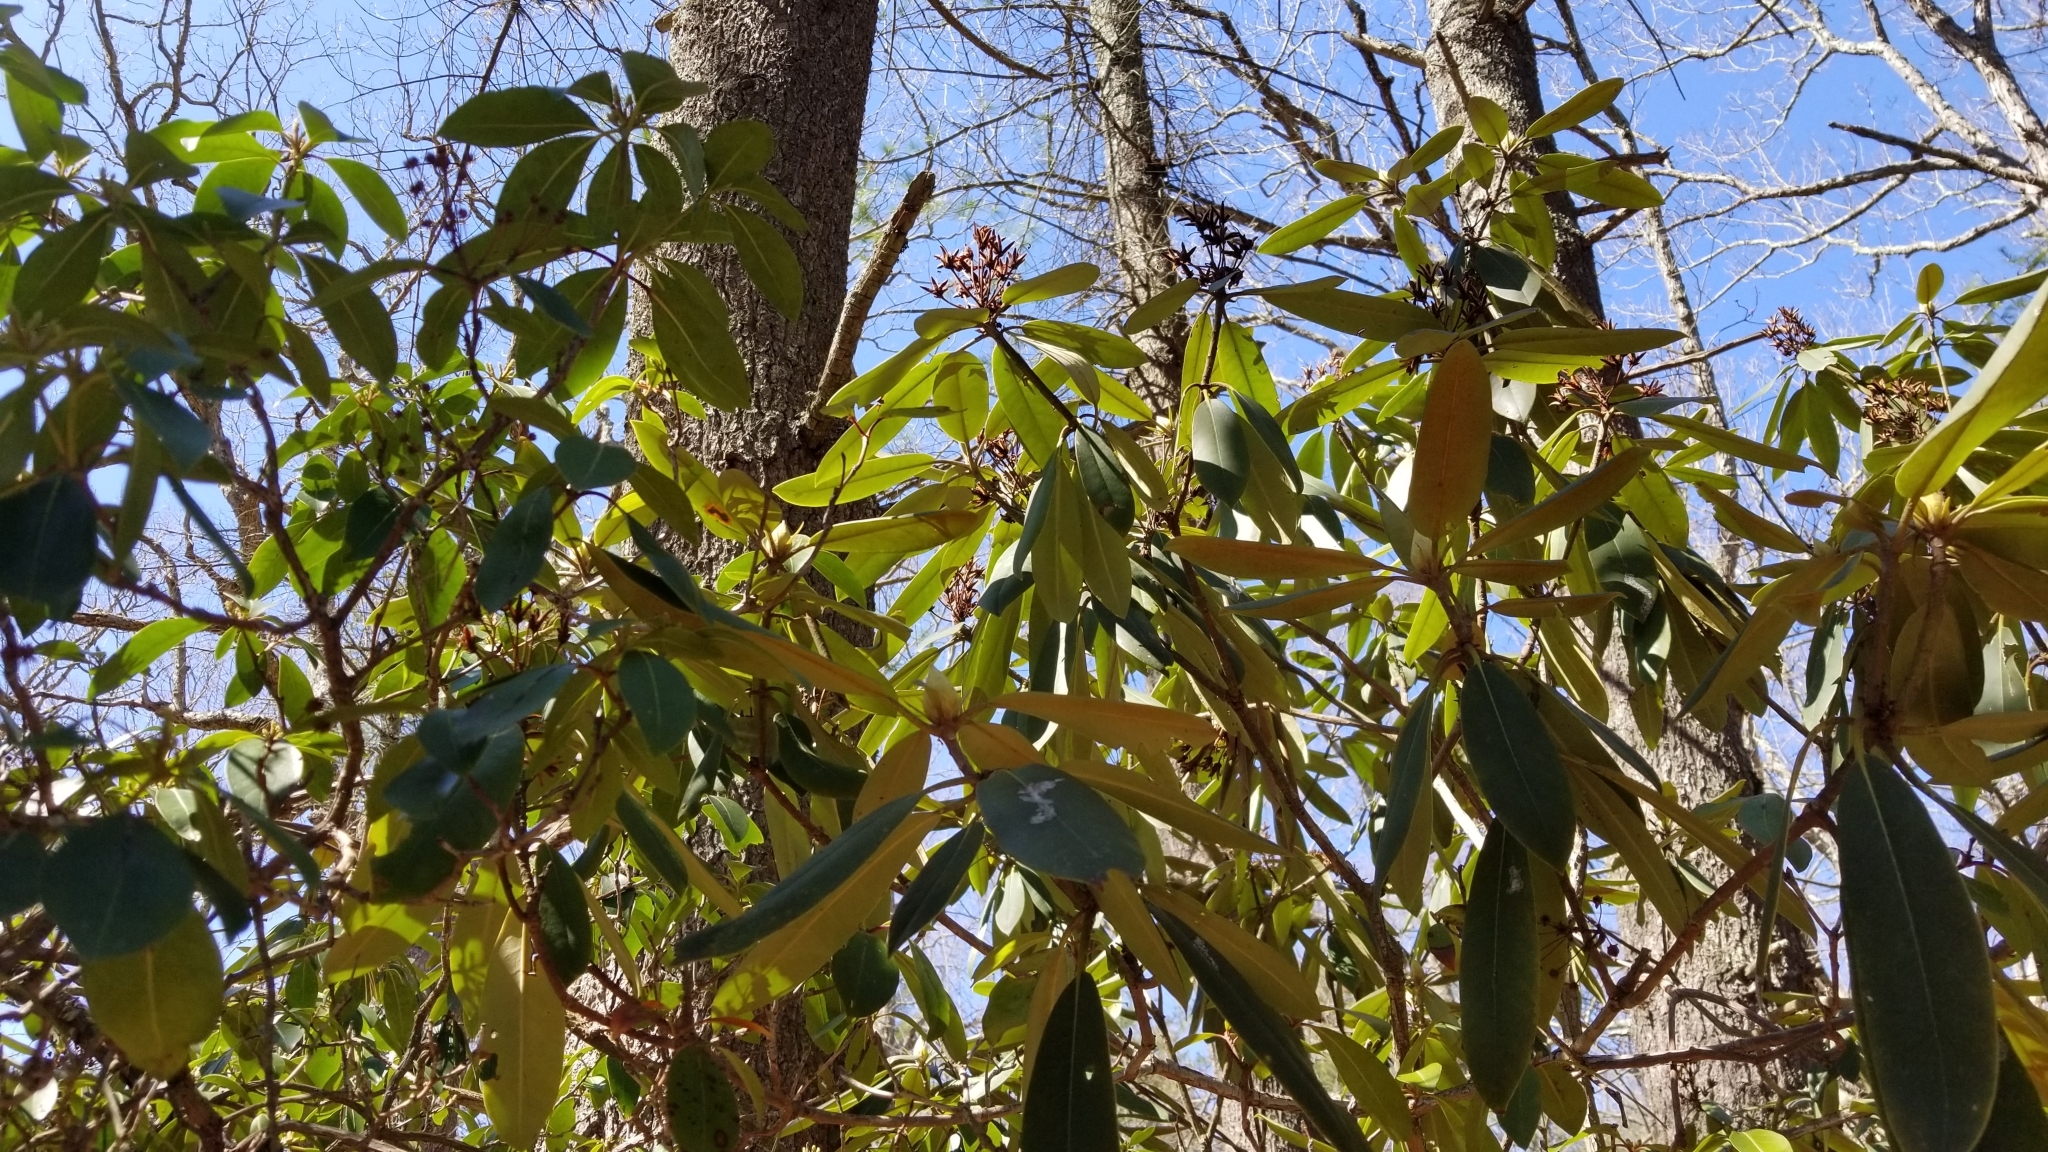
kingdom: Plantae
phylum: Tracheophyta
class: Magnoliopsida
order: Ericales
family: Ericaceae
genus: Rhododendron
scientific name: Rhododendron maximum
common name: Great rhododendron
